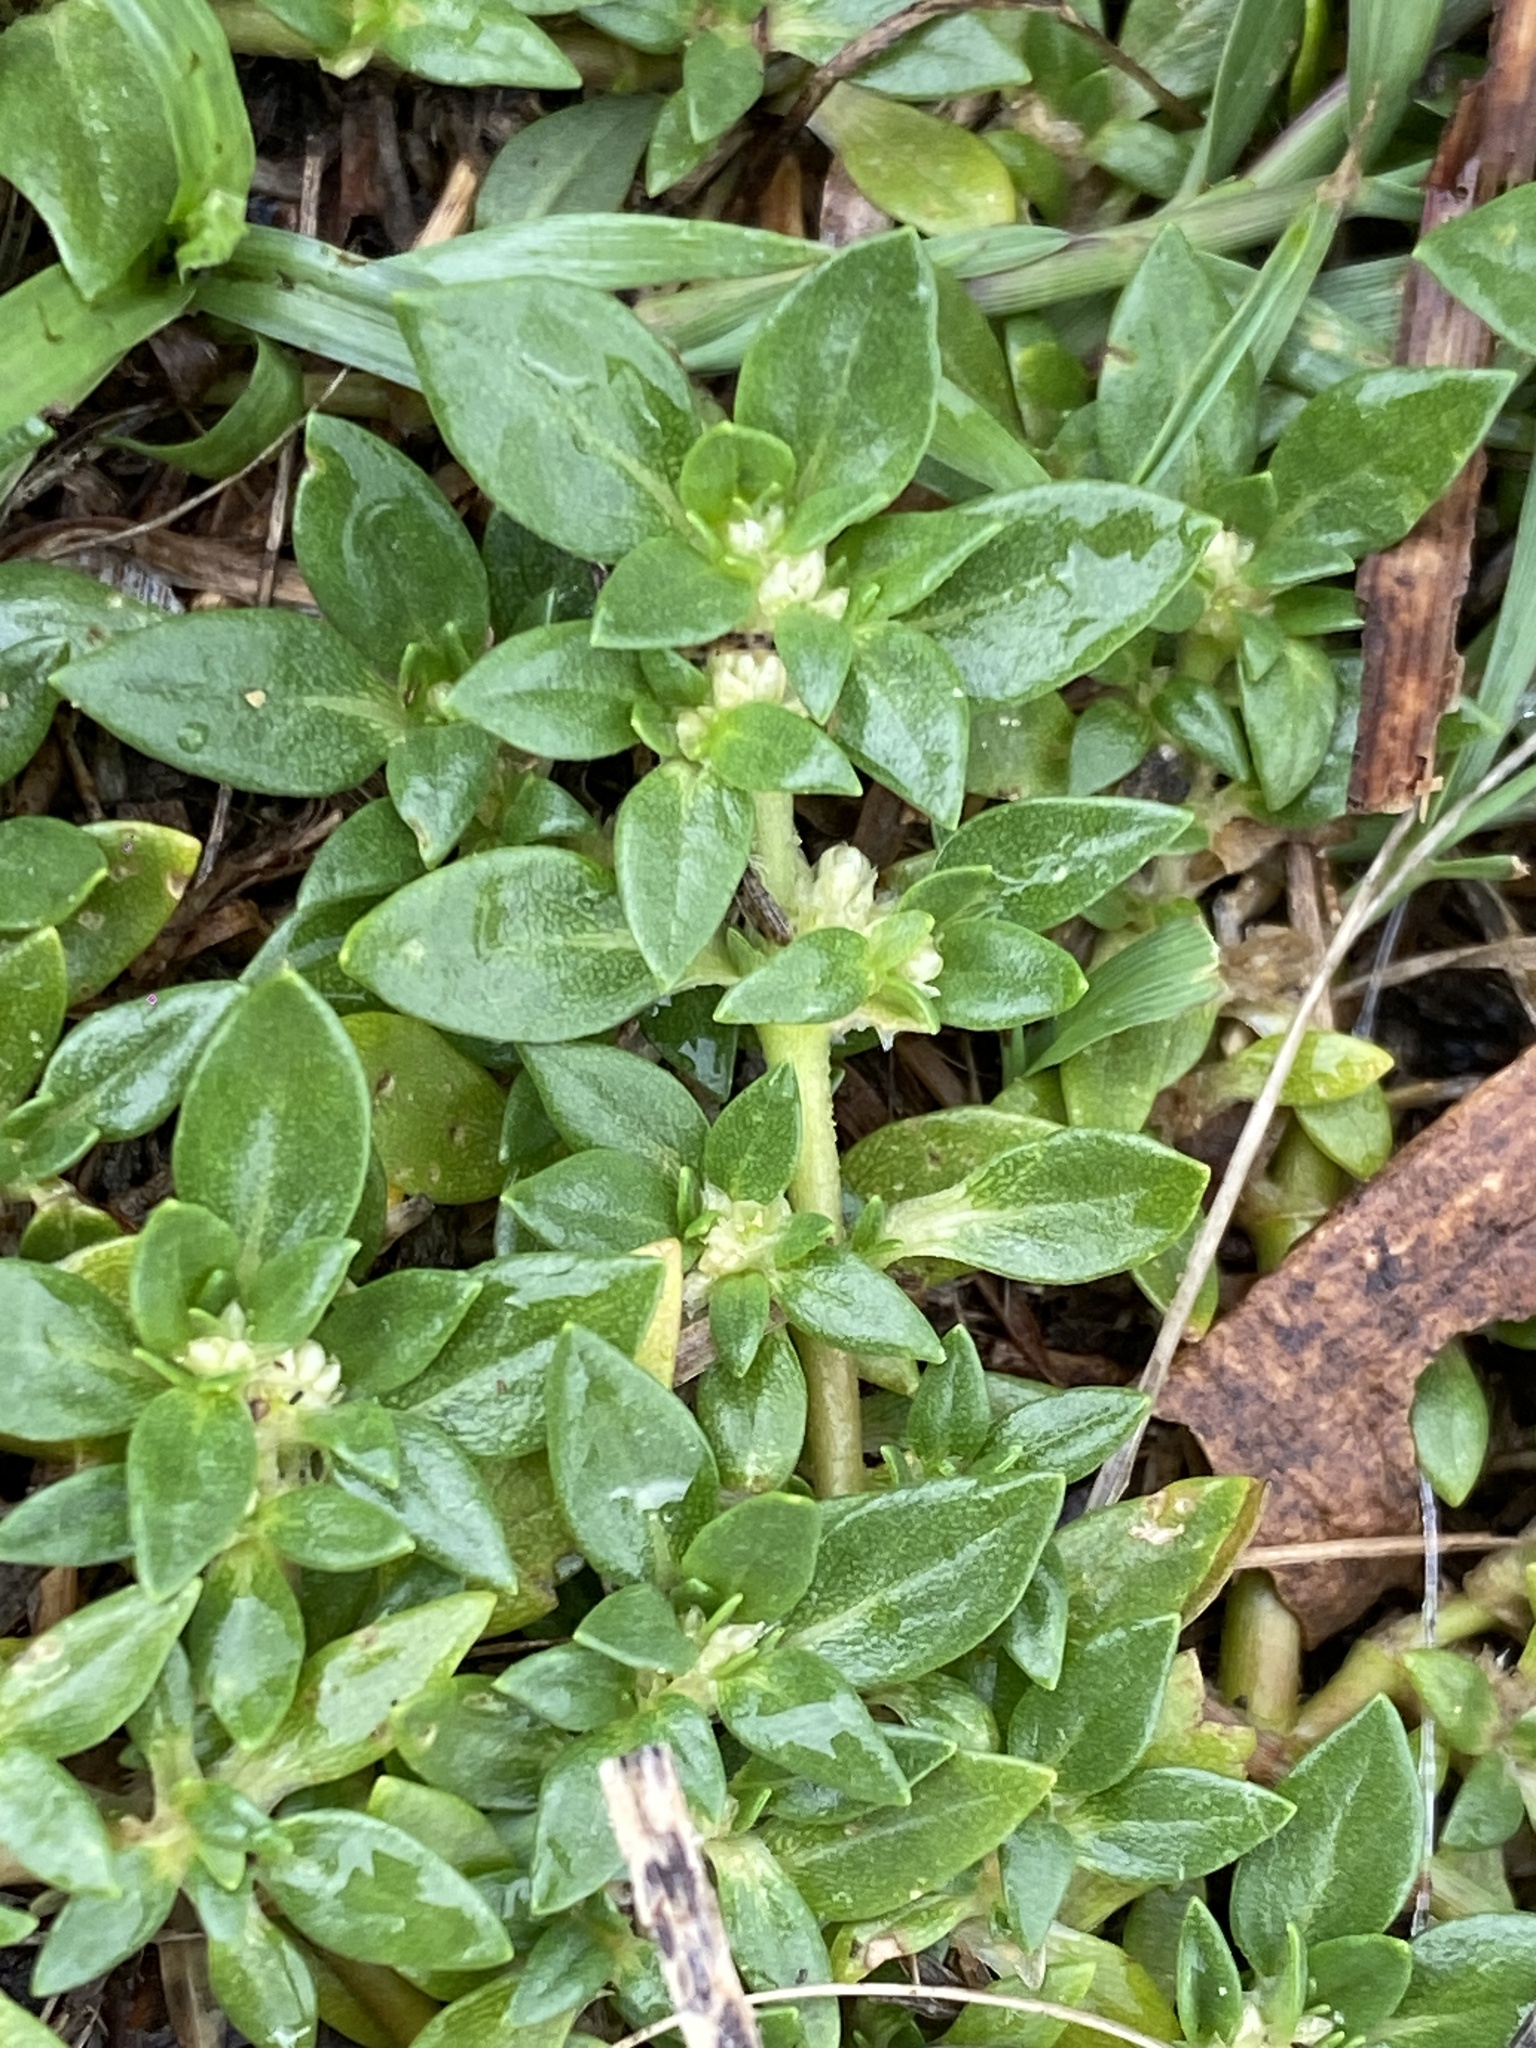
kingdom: Plantae
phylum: Tracheophyta
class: Magnoliopsida
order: Caryophyllales
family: Amaranthaceae
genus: Guilleminea
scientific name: Guilleminea densa
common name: Small matweed
